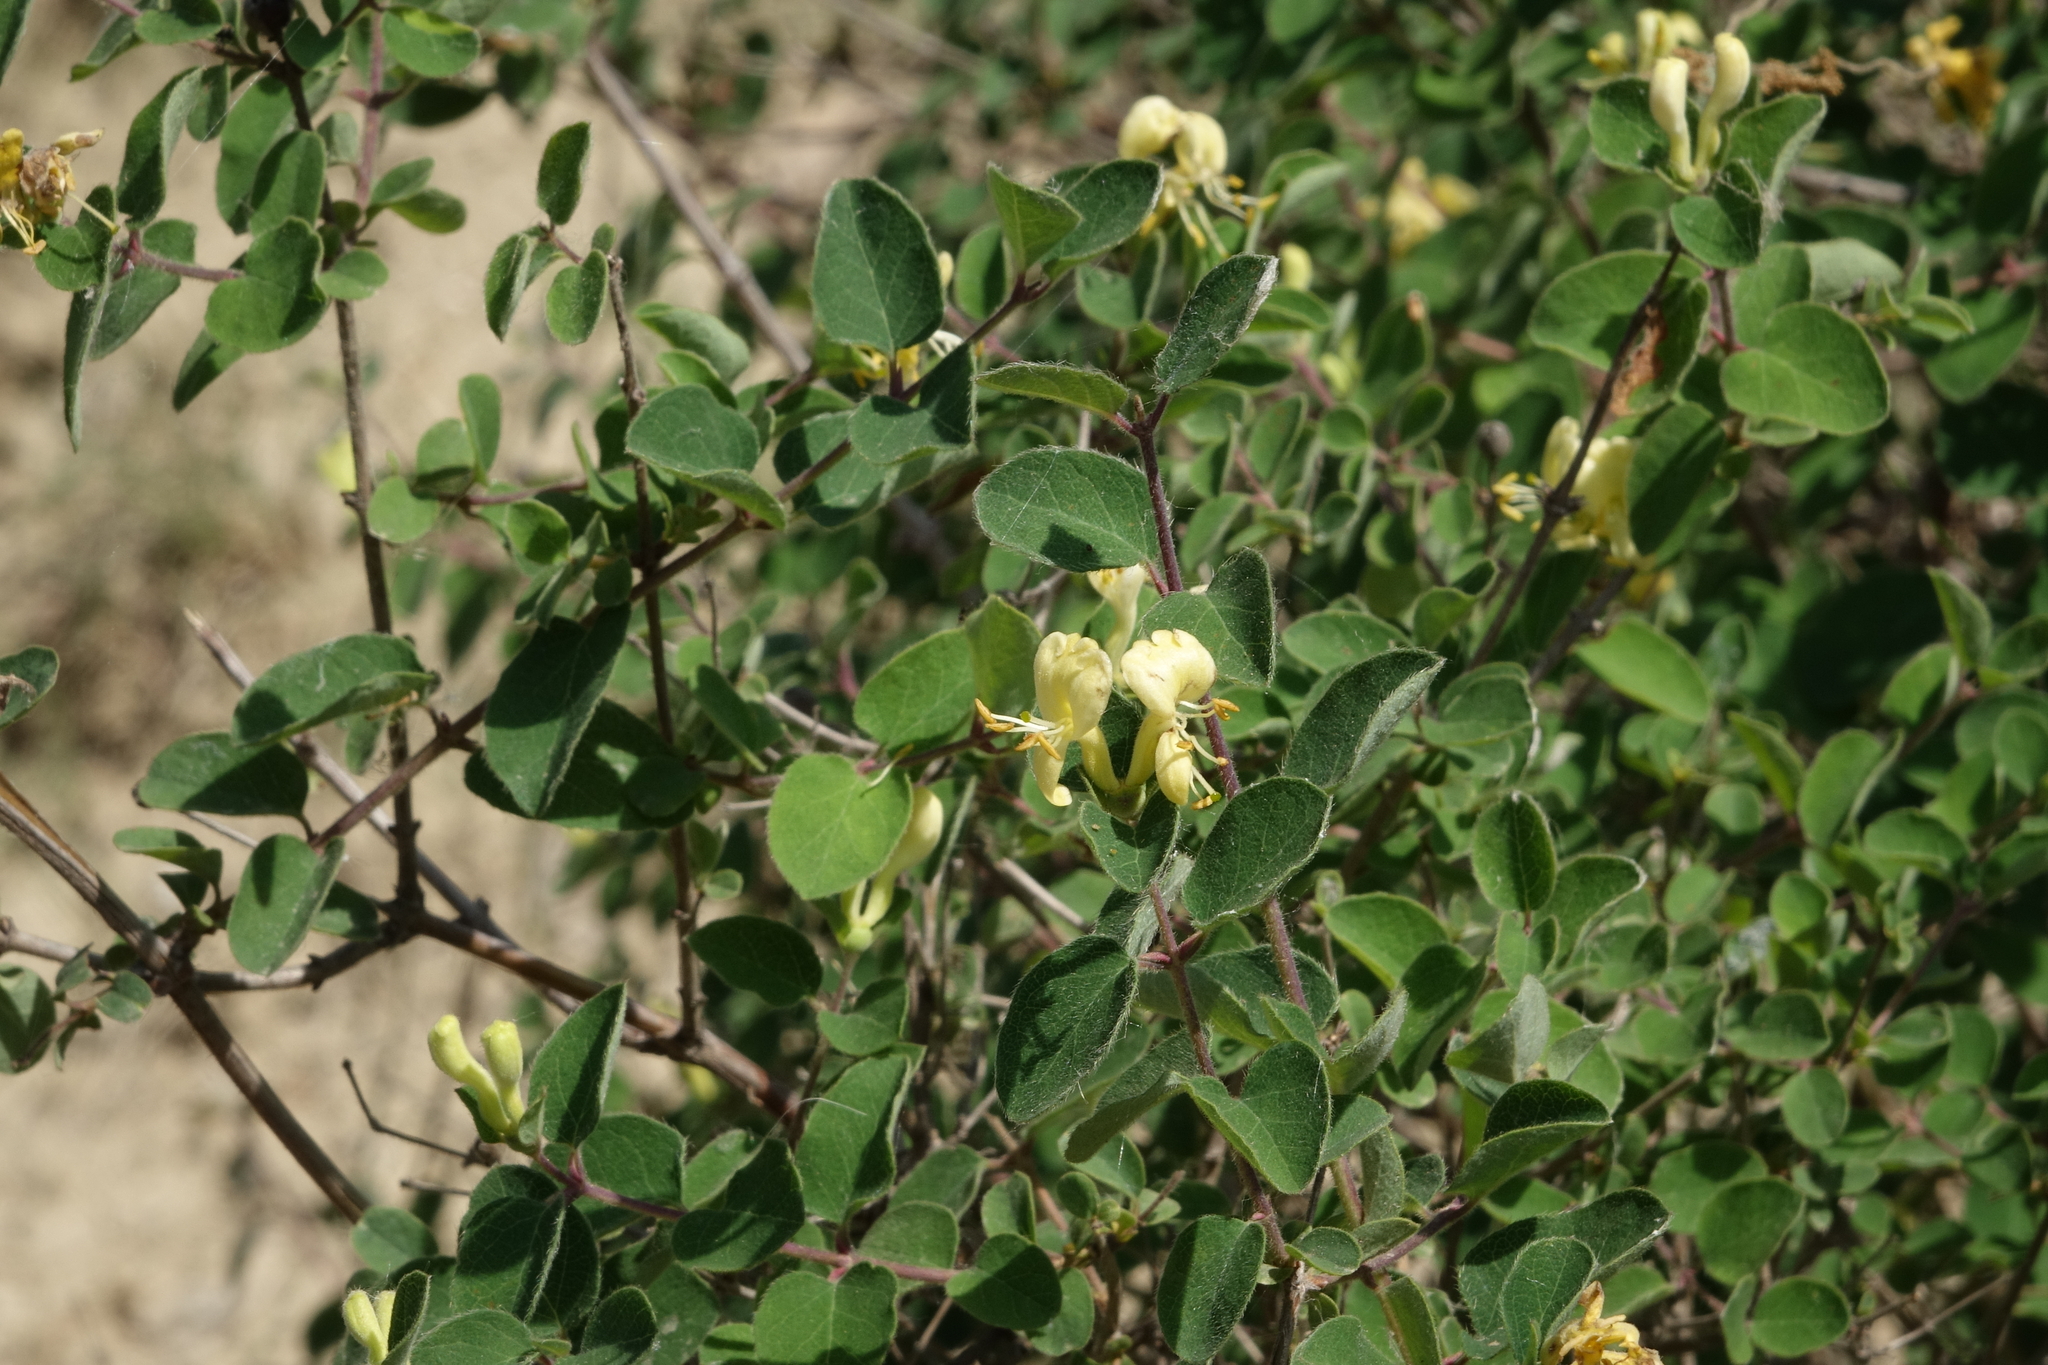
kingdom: Plantae
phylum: Tracheophyta
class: Magnoliopsida
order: Dipsacales
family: Caprifoliaceae
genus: Lonicera
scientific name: Lonicera iberica
